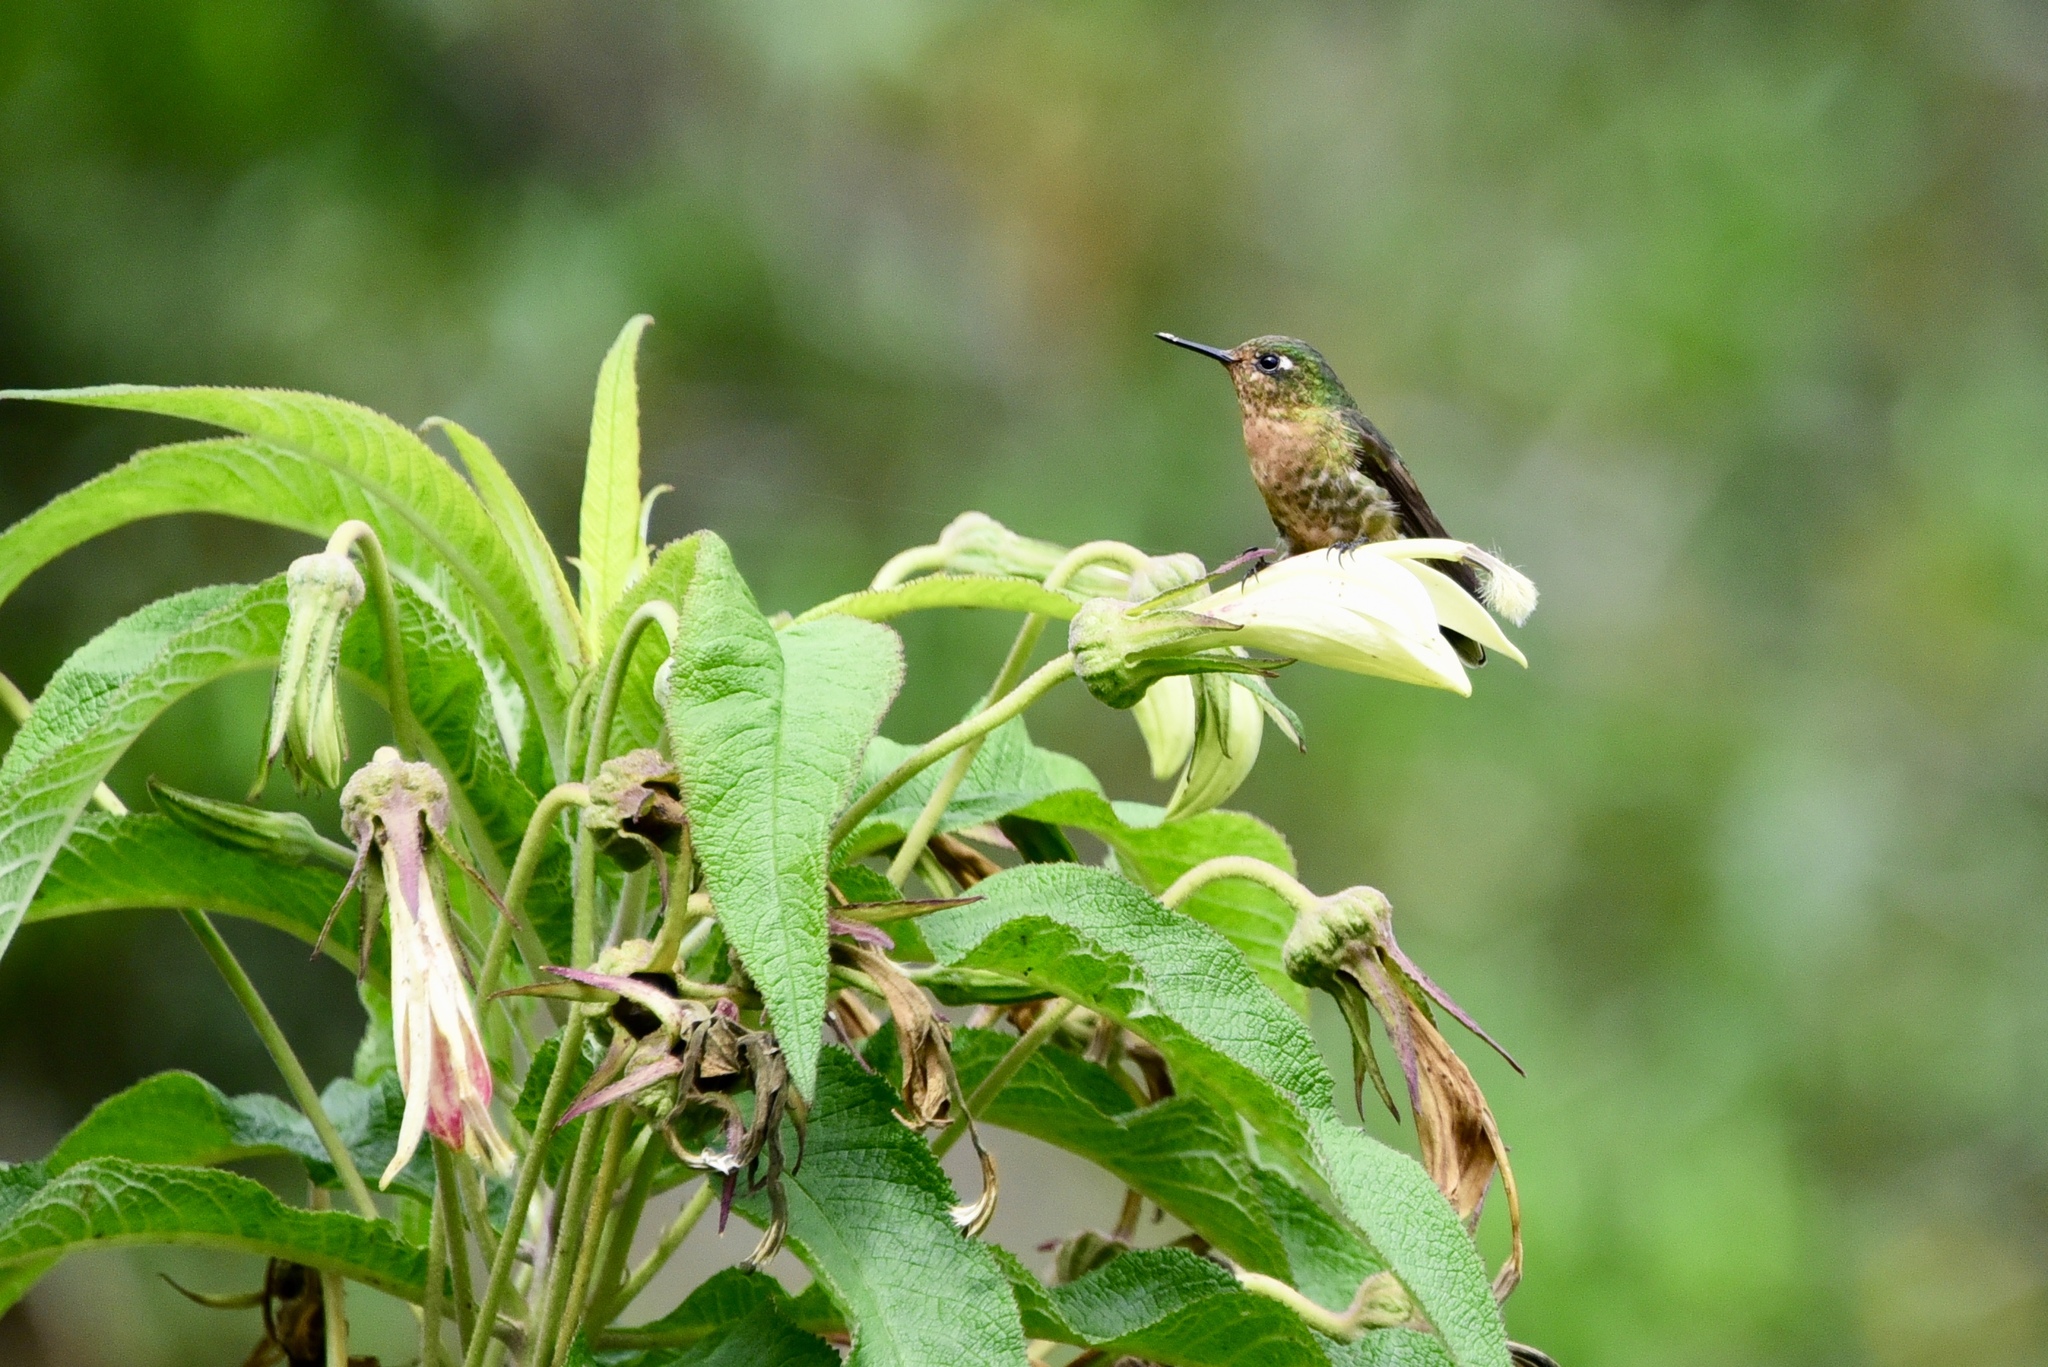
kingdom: Animalia
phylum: Chordata
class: Aves
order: Apodiformes
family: Trochilidae
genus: Metallura
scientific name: Metallura tyrianthina
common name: Tyrian metaltail
